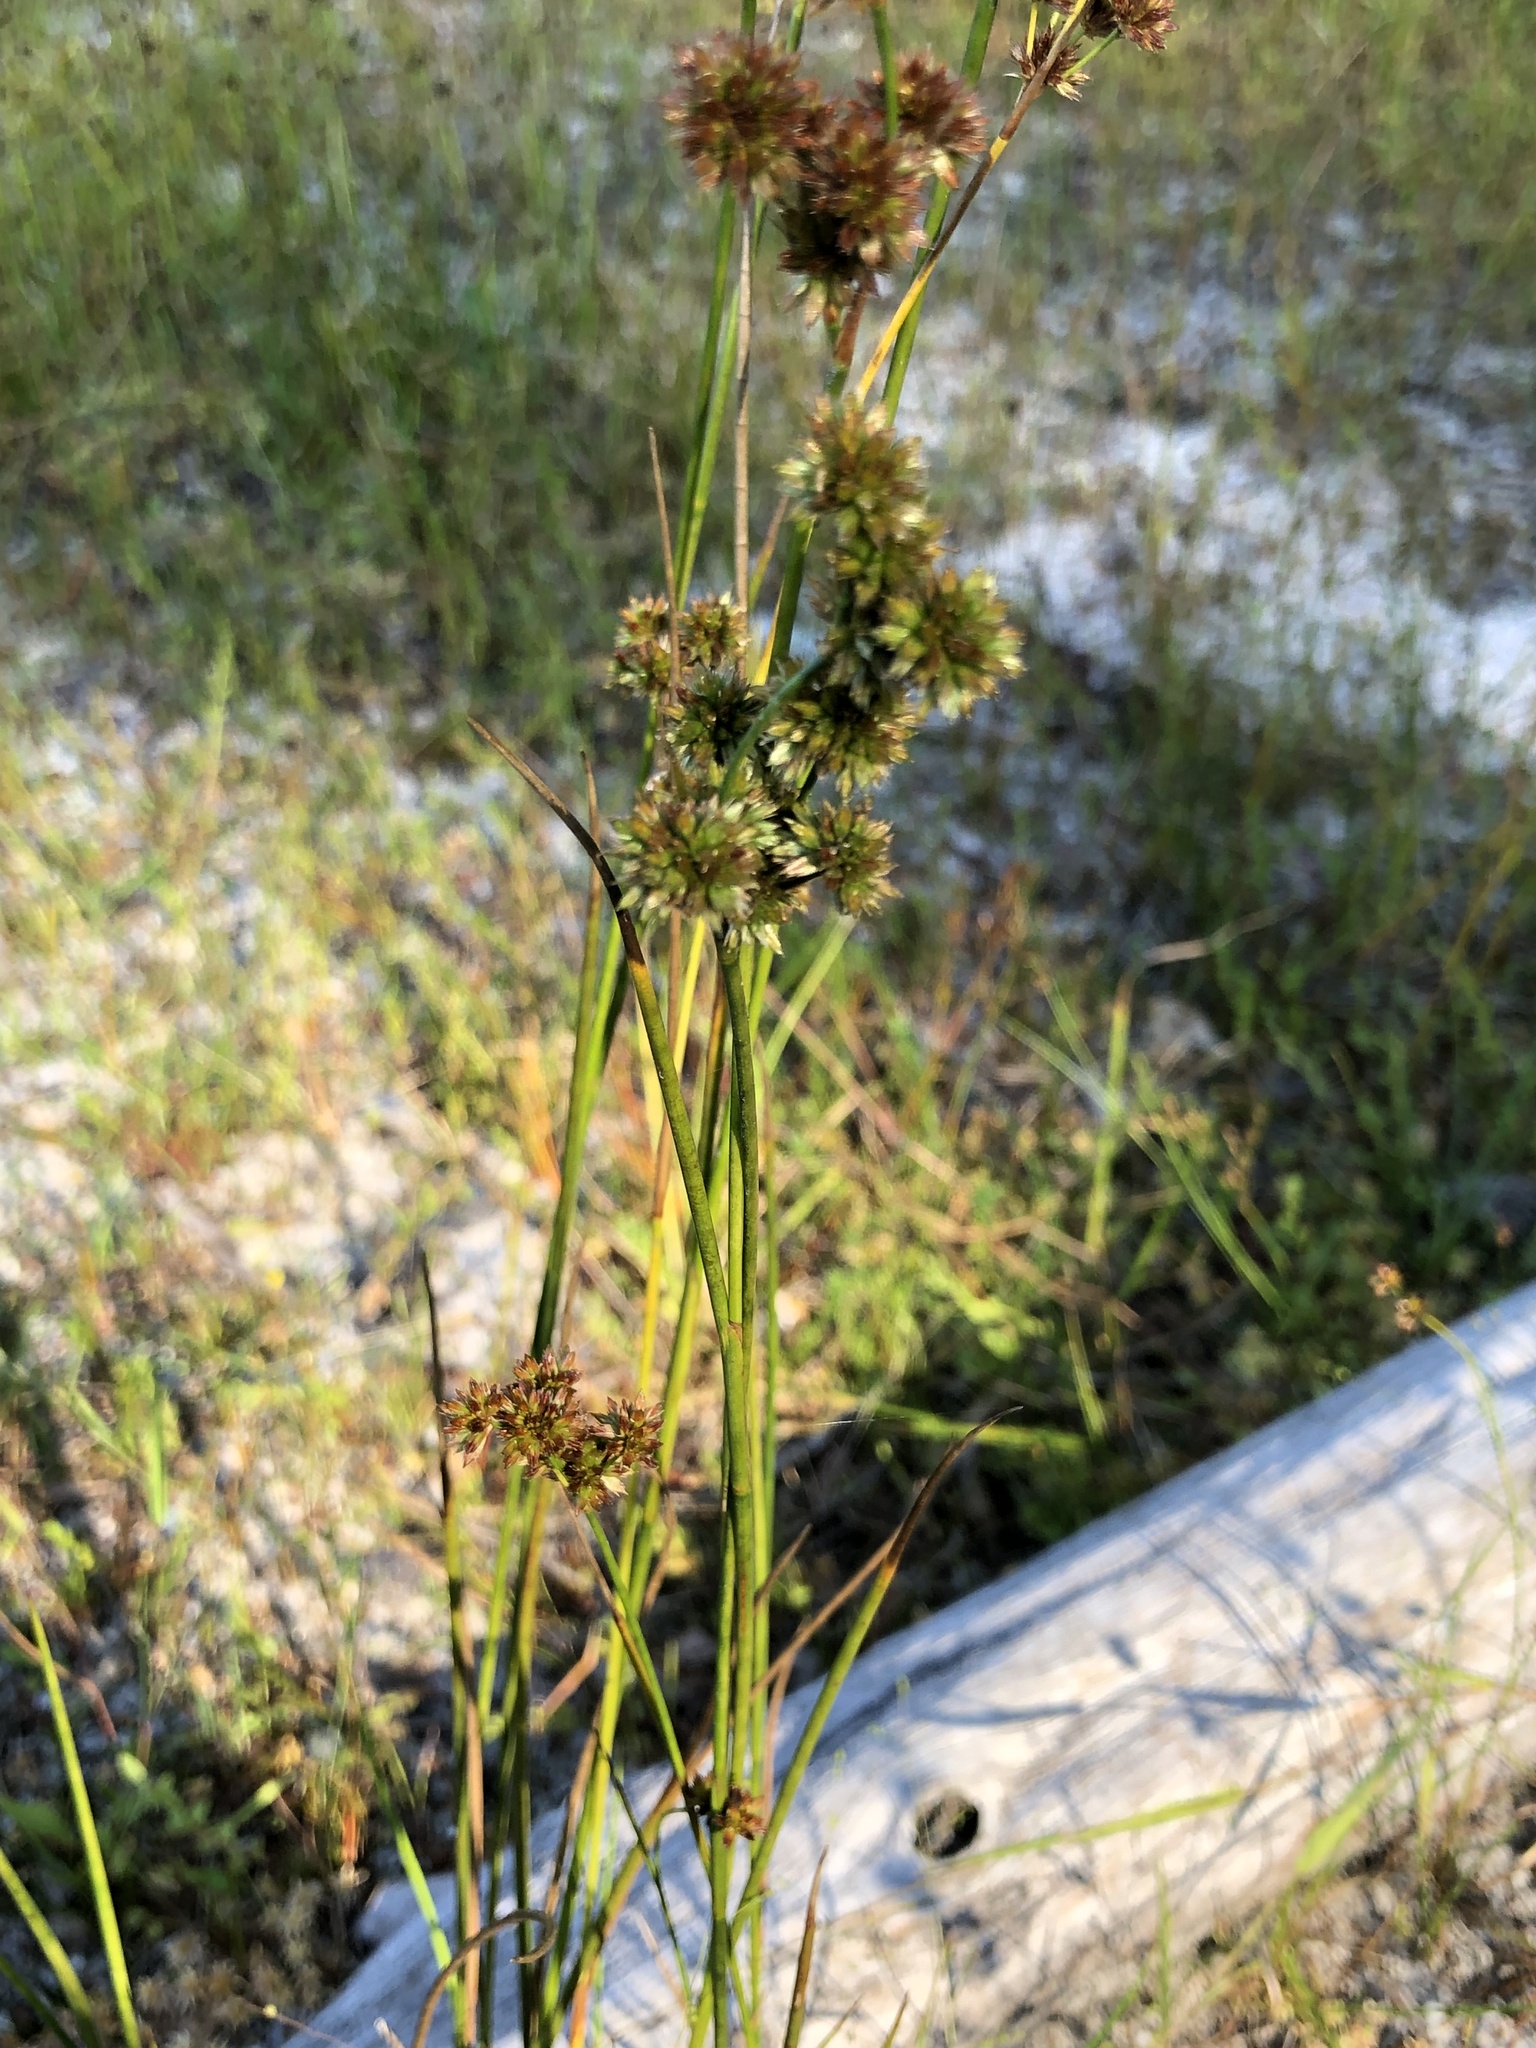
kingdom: Plantae
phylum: Tracheophyta
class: Liliopsida
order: Poales
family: Juncaceae
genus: Juncus
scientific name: Juncus canadensis
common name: Canada rush
